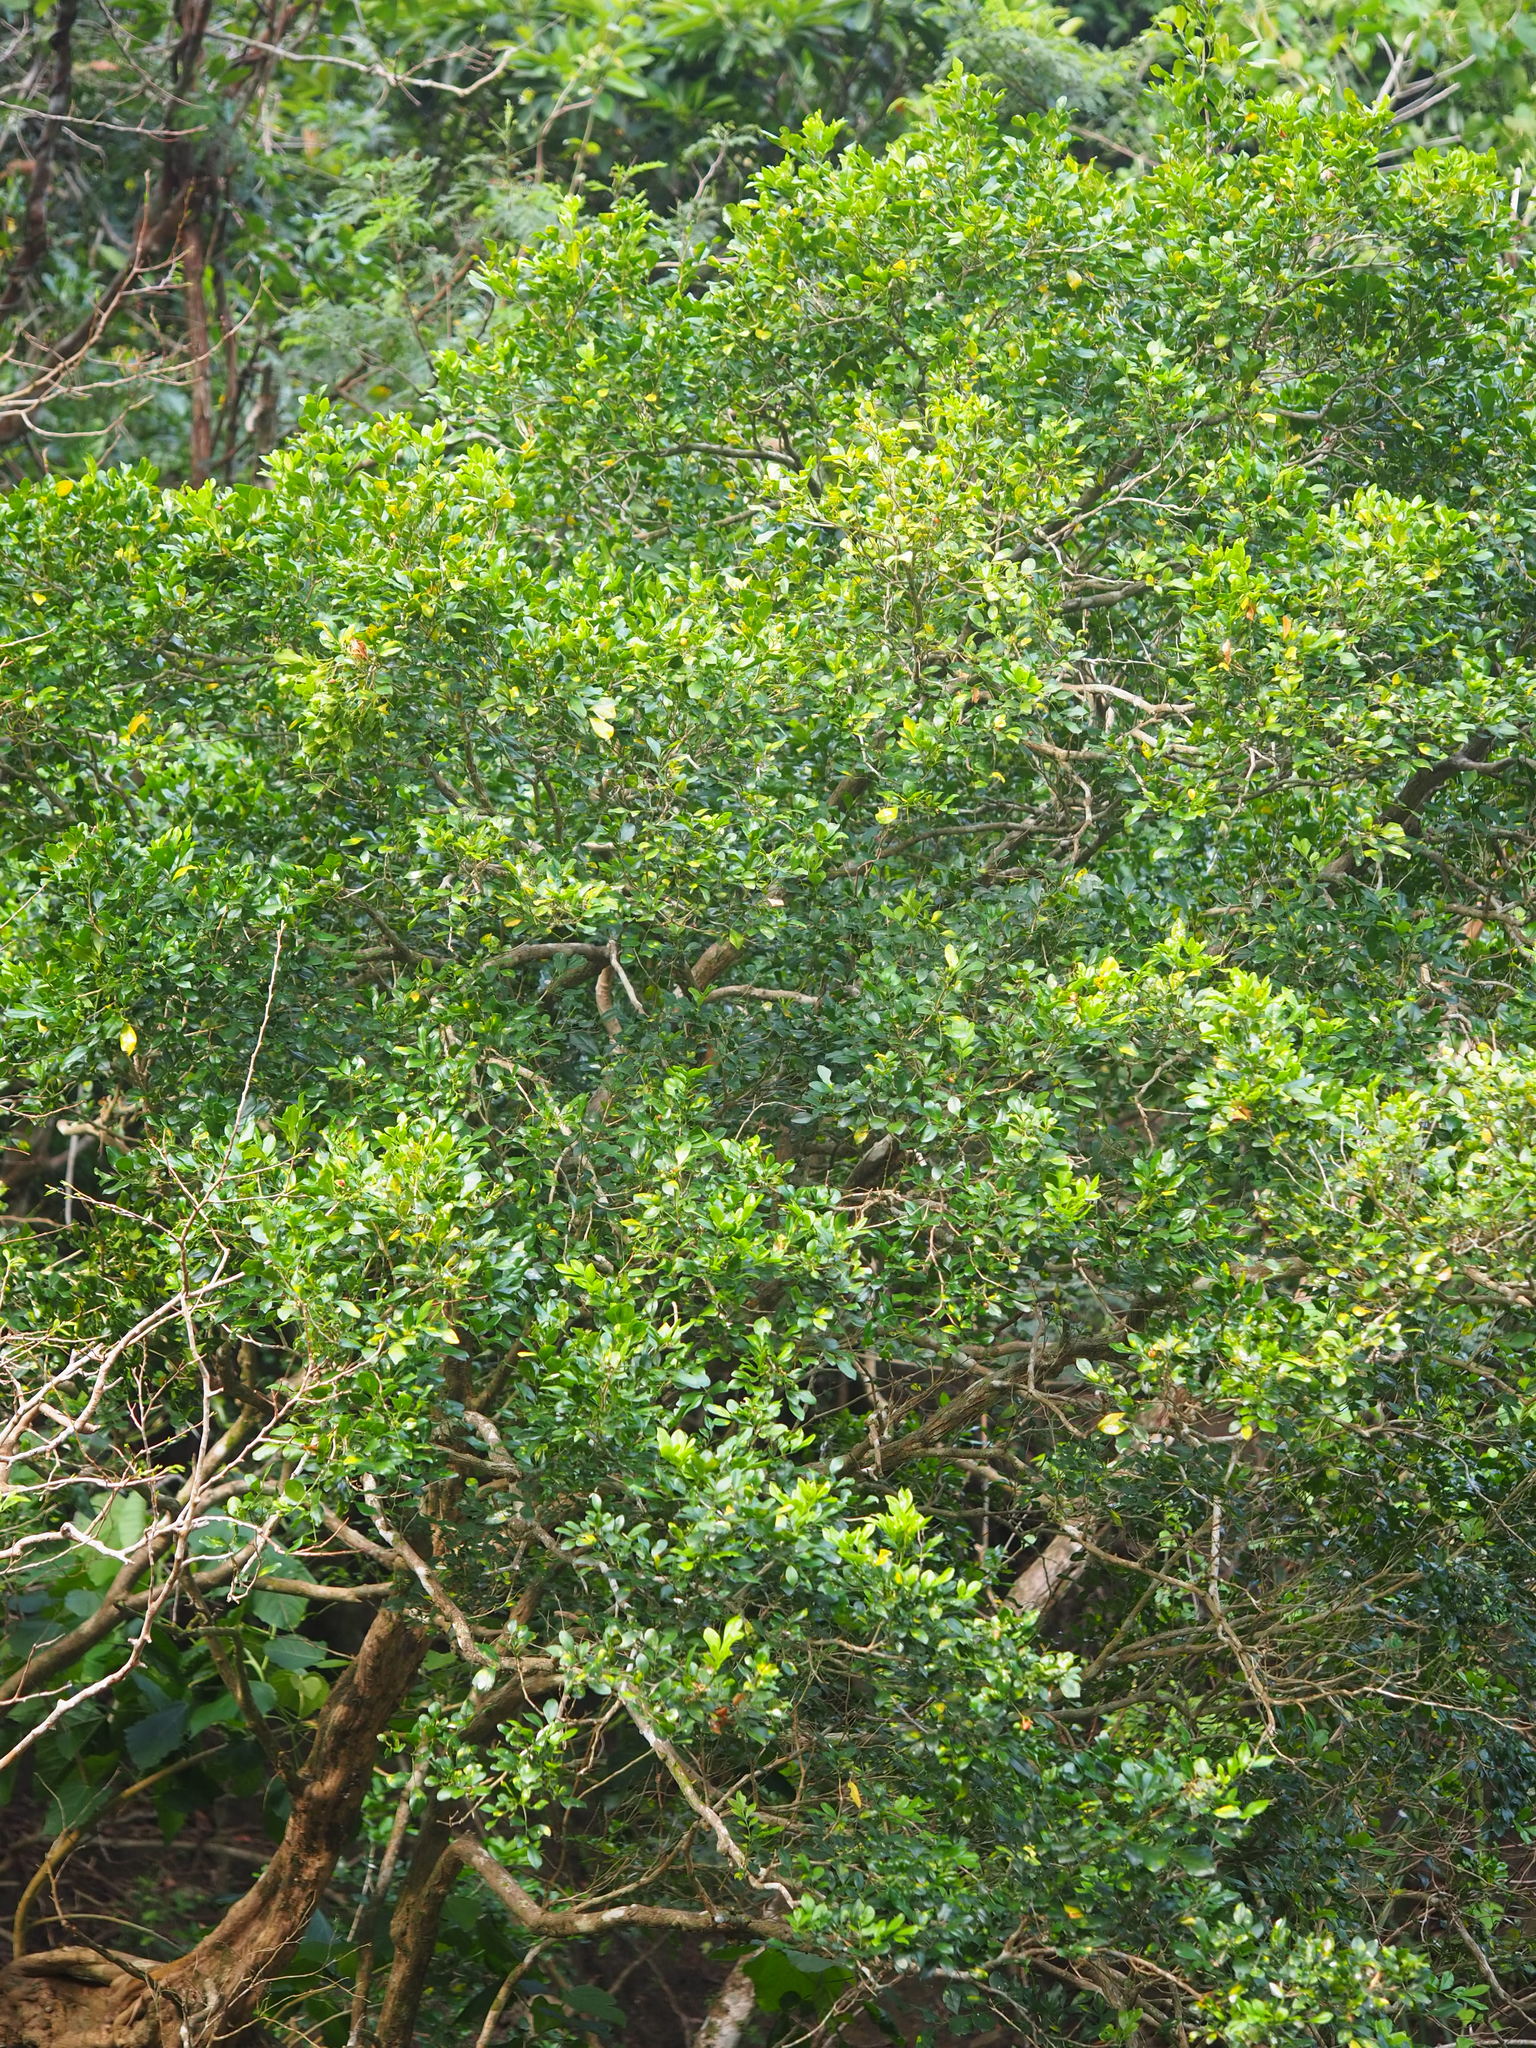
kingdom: Plantae
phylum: Tracheophyta
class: Magnoliopsida
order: Sapindales
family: Rutaceae
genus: Murraya
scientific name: Murraya paniculata
